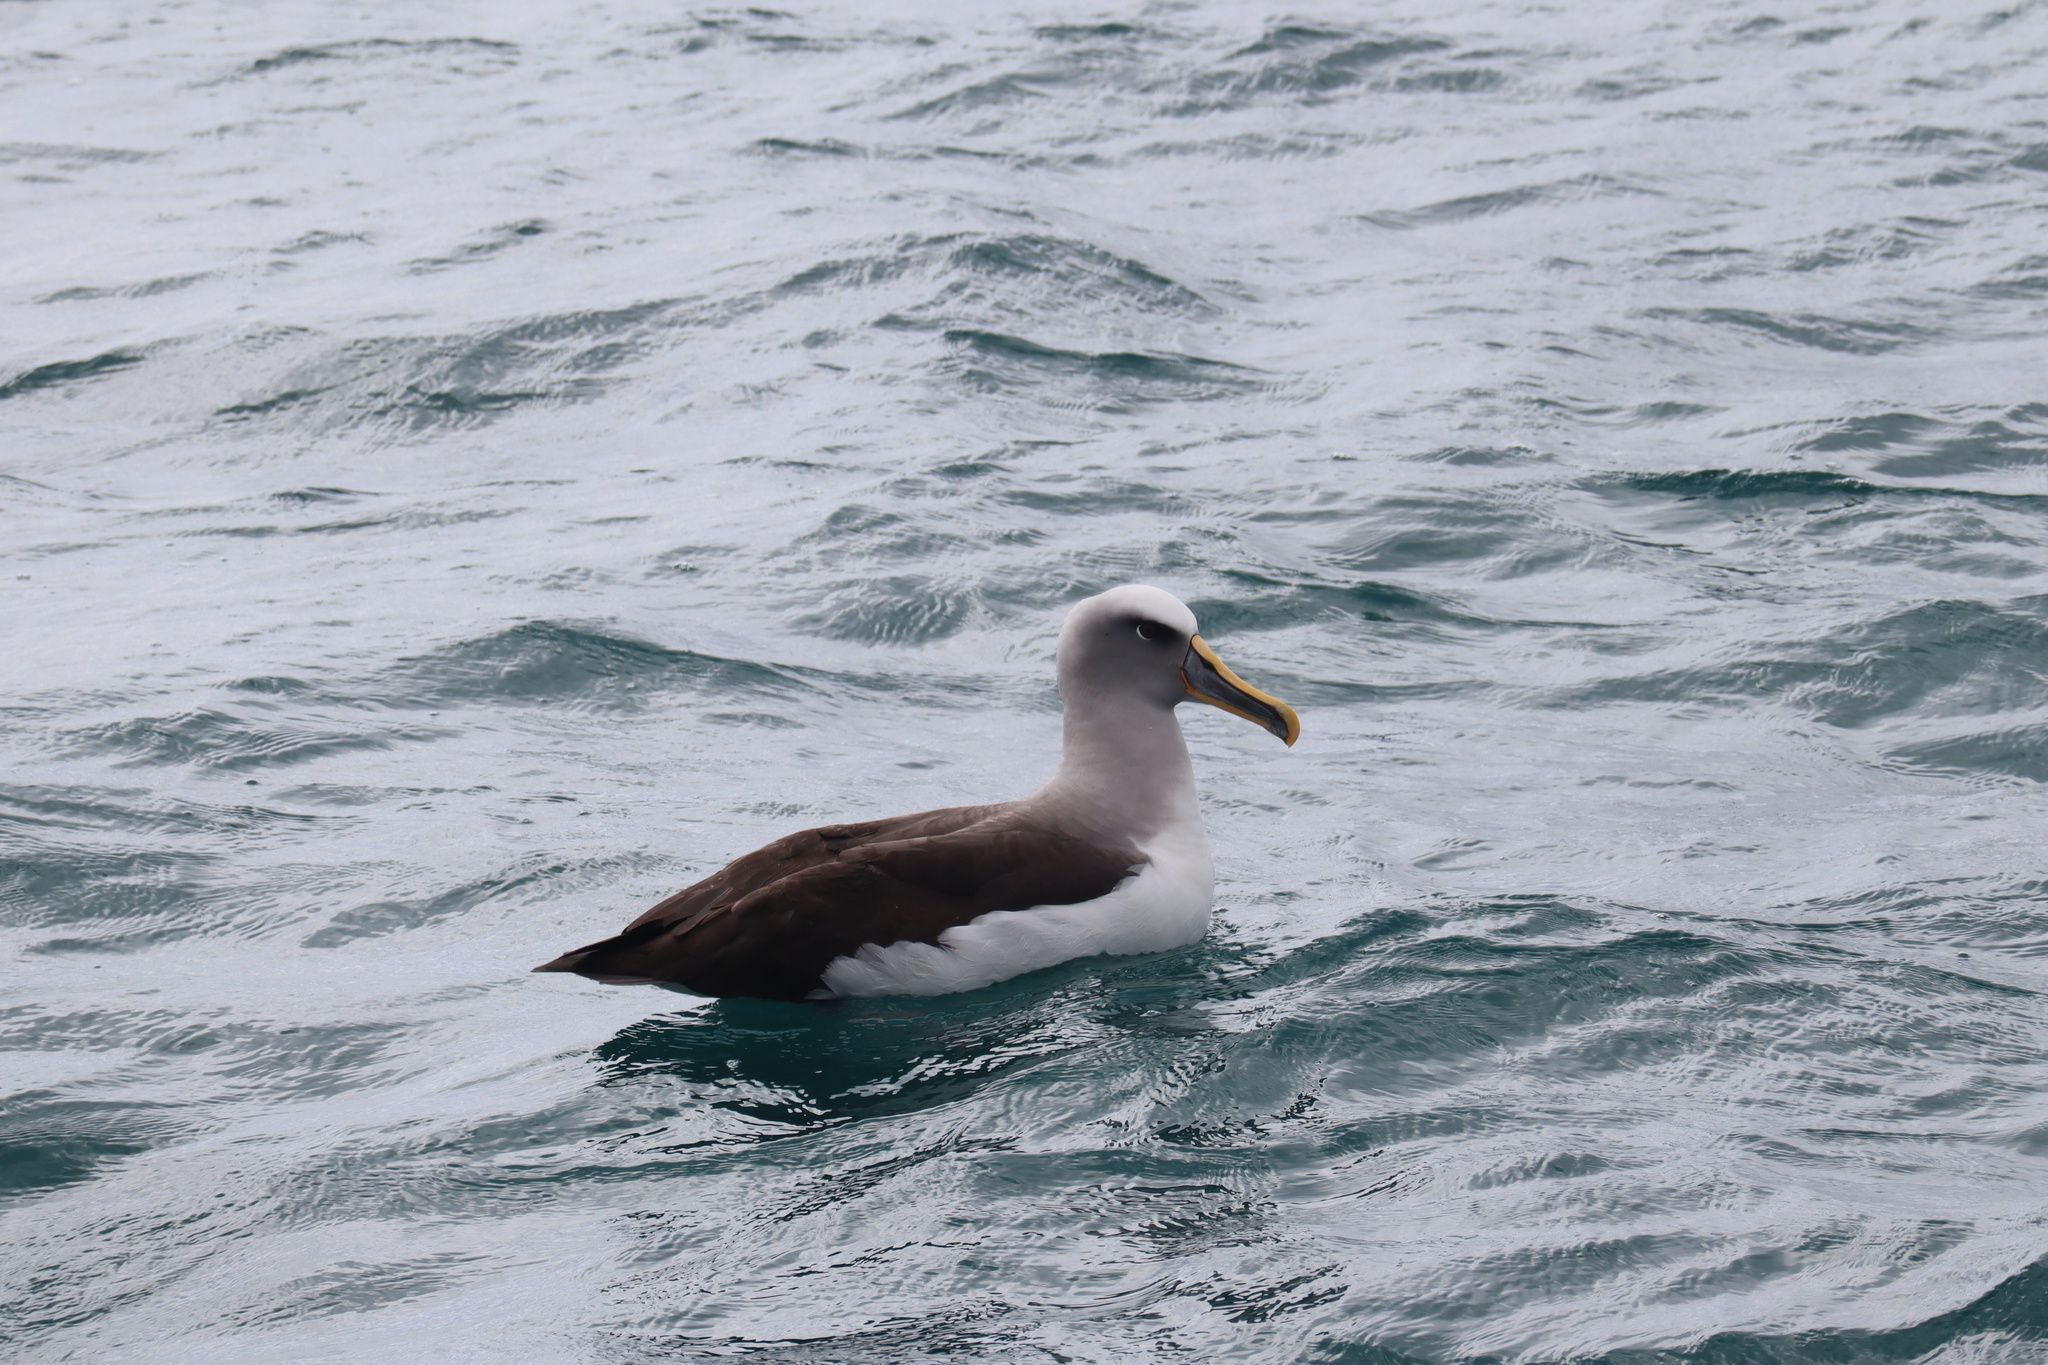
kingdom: Animalia
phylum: Chordata
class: Aves
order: Procellariiformes
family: Diomedeidae
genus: Thalassarche
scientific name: Thalassarche bulleri
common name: Buller's albatross
